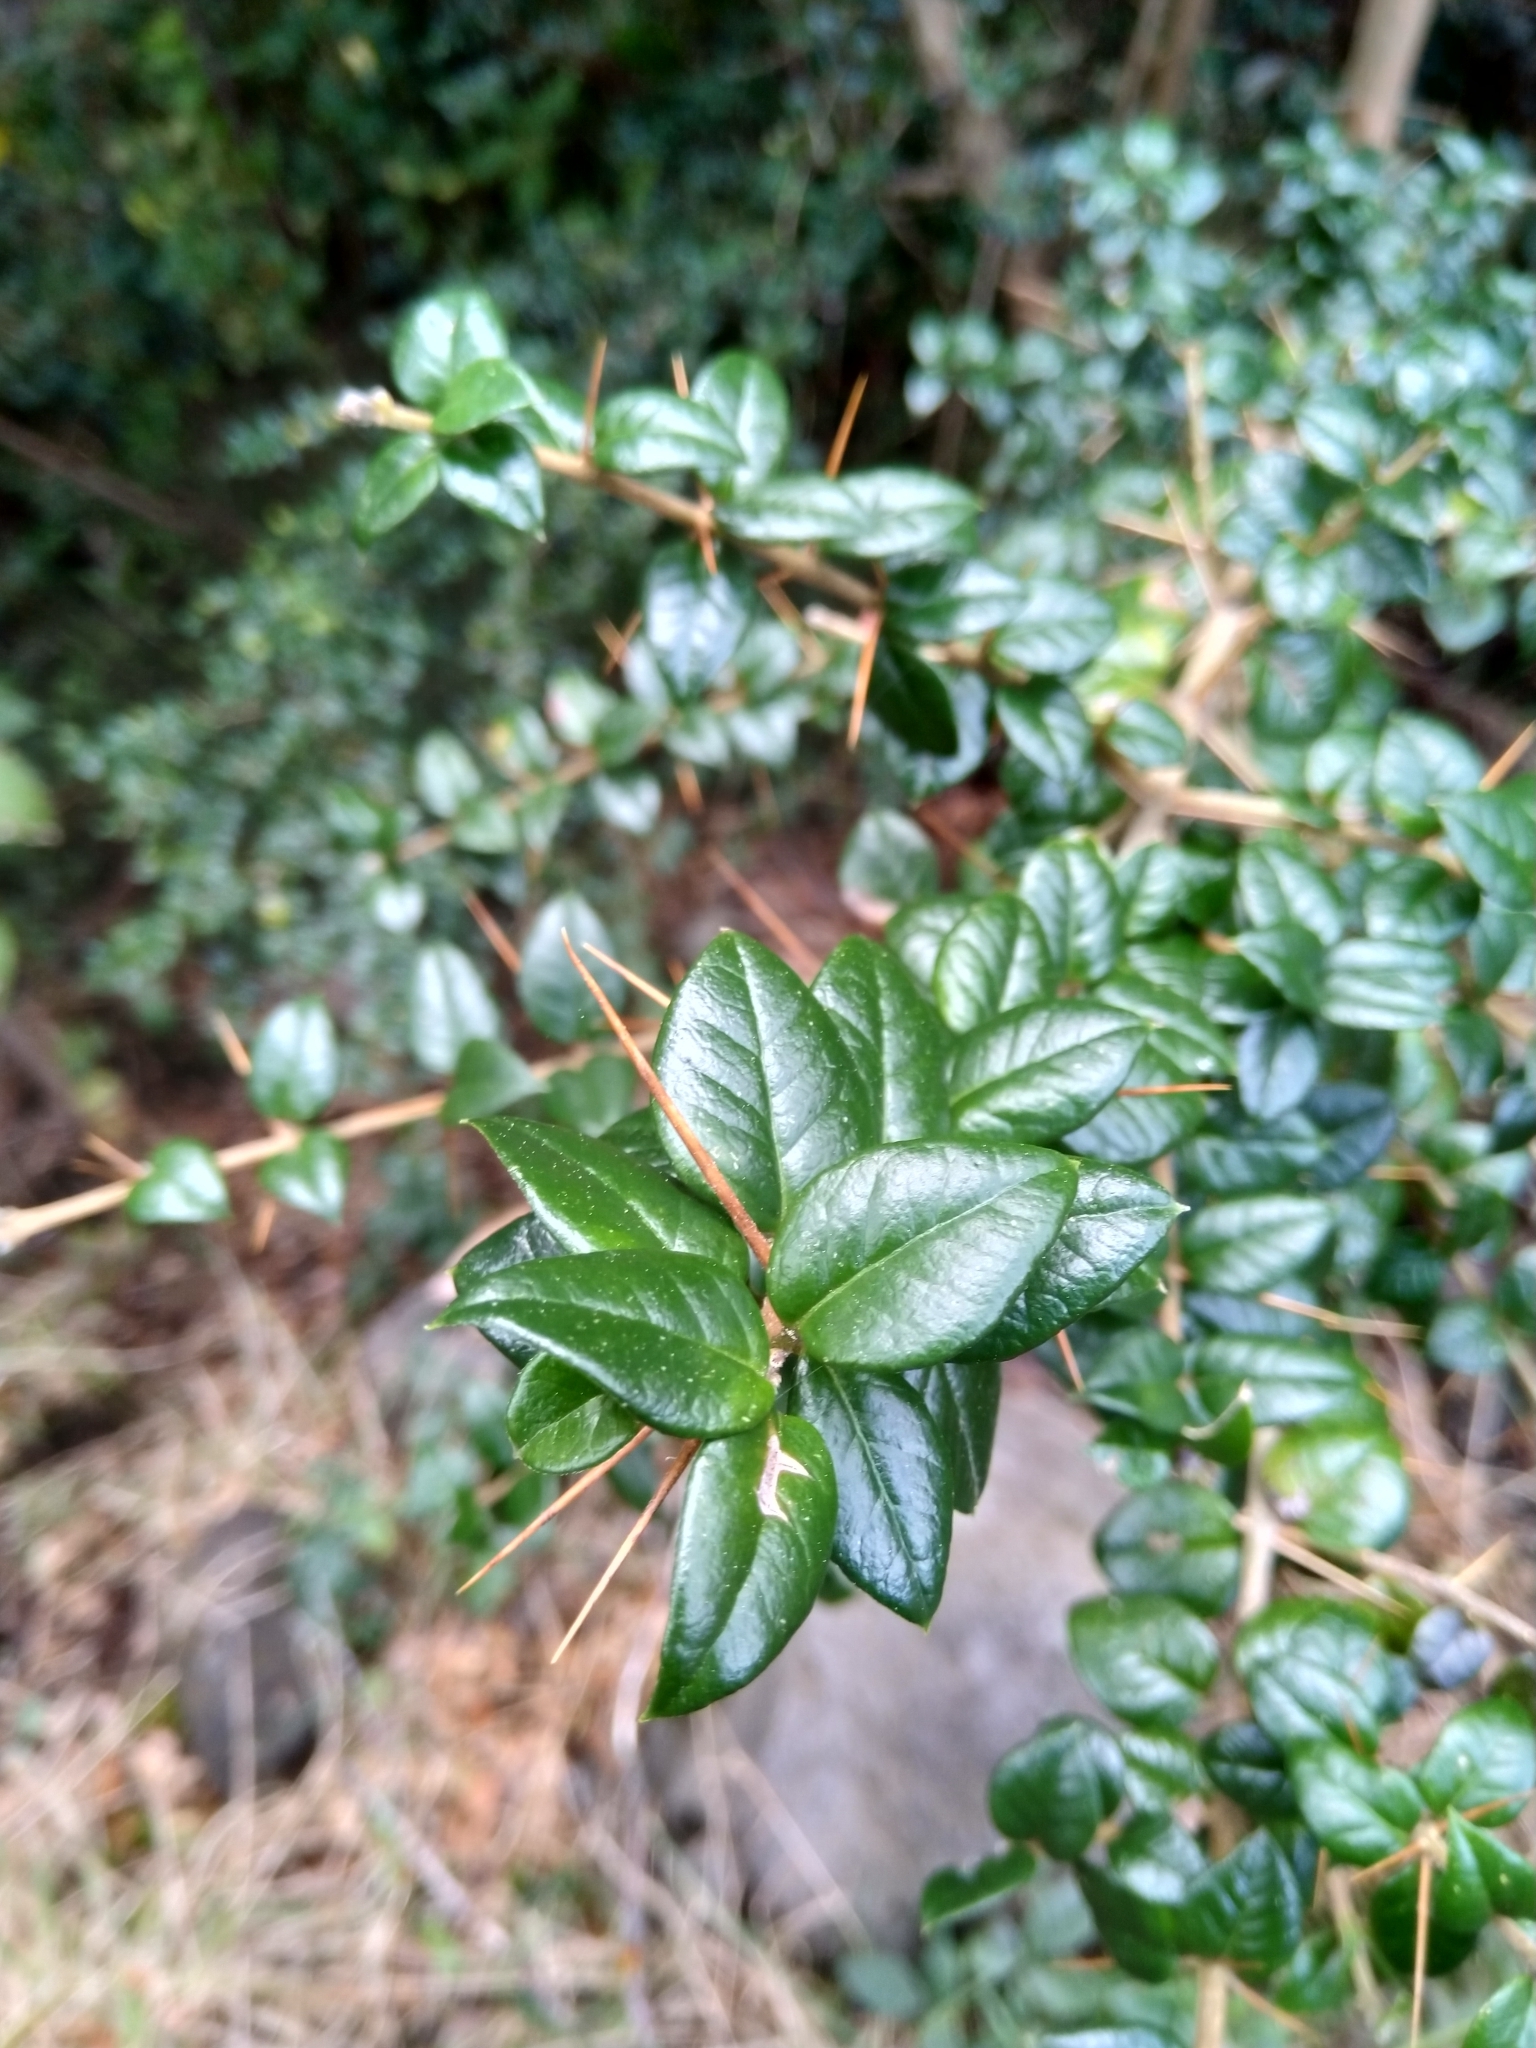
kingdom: Plantae
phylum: Tracheophyta
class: Magnoliopsida
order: Lamiales
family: Verbenaceae
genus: Rhaphithamnus
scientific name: Rhaphithamnus spinosus
